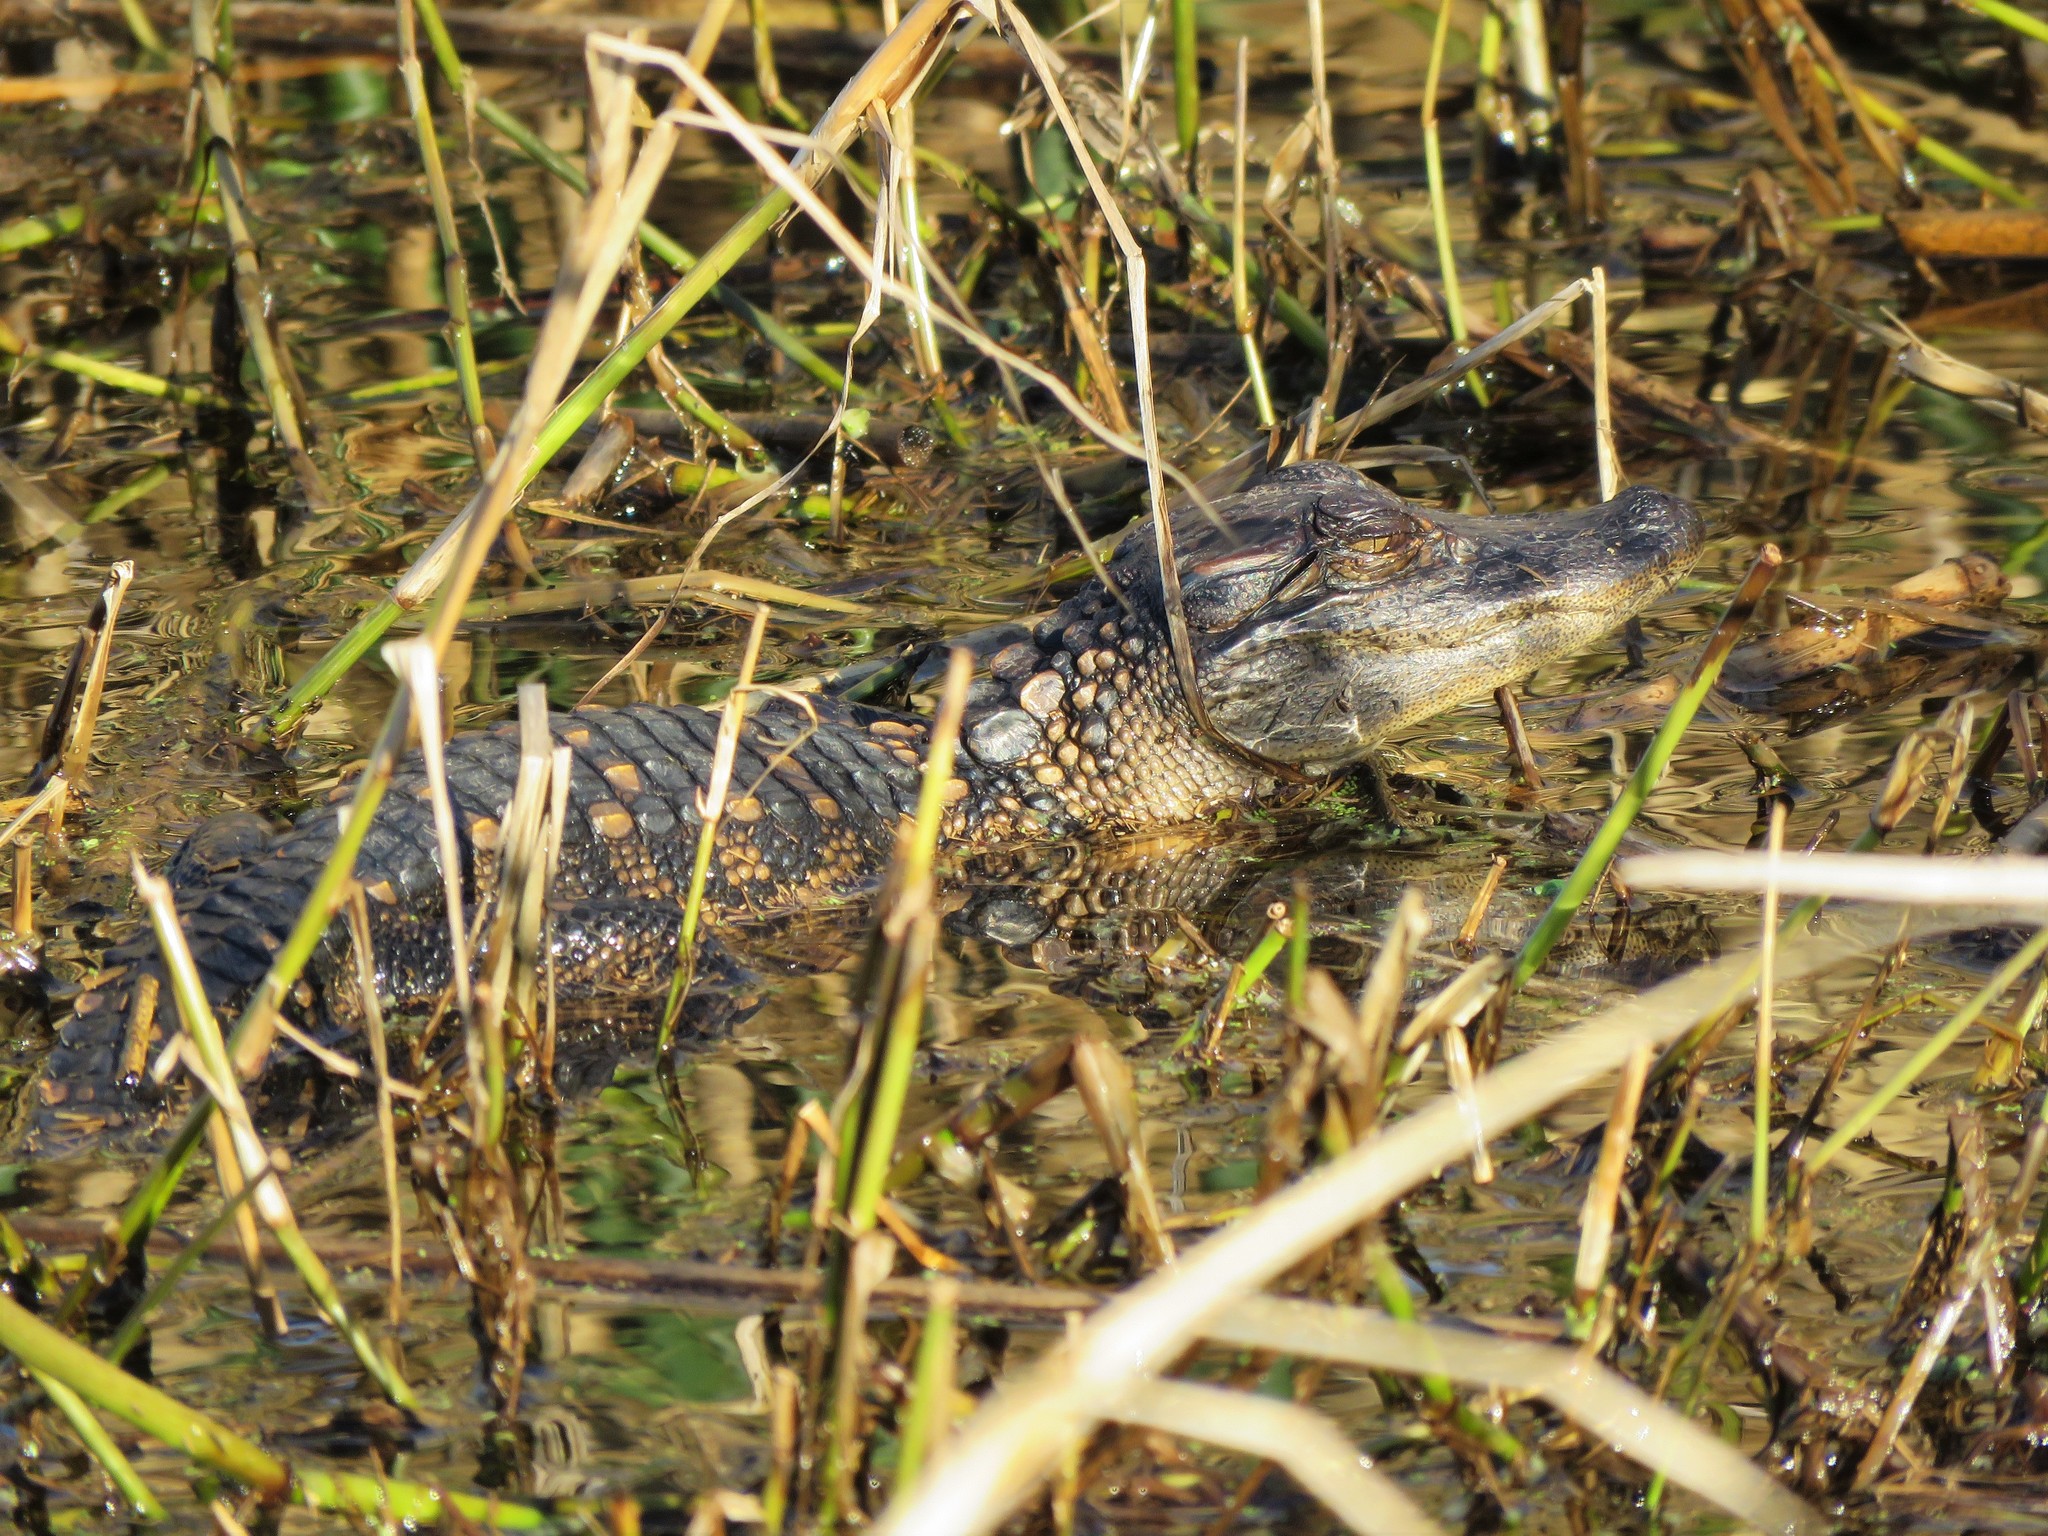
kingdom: Animalia
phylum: Chordata
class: Crocodylia
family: Alligatoridae
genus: Alligator
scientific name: Alligator mississippiensis
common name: American alligator
